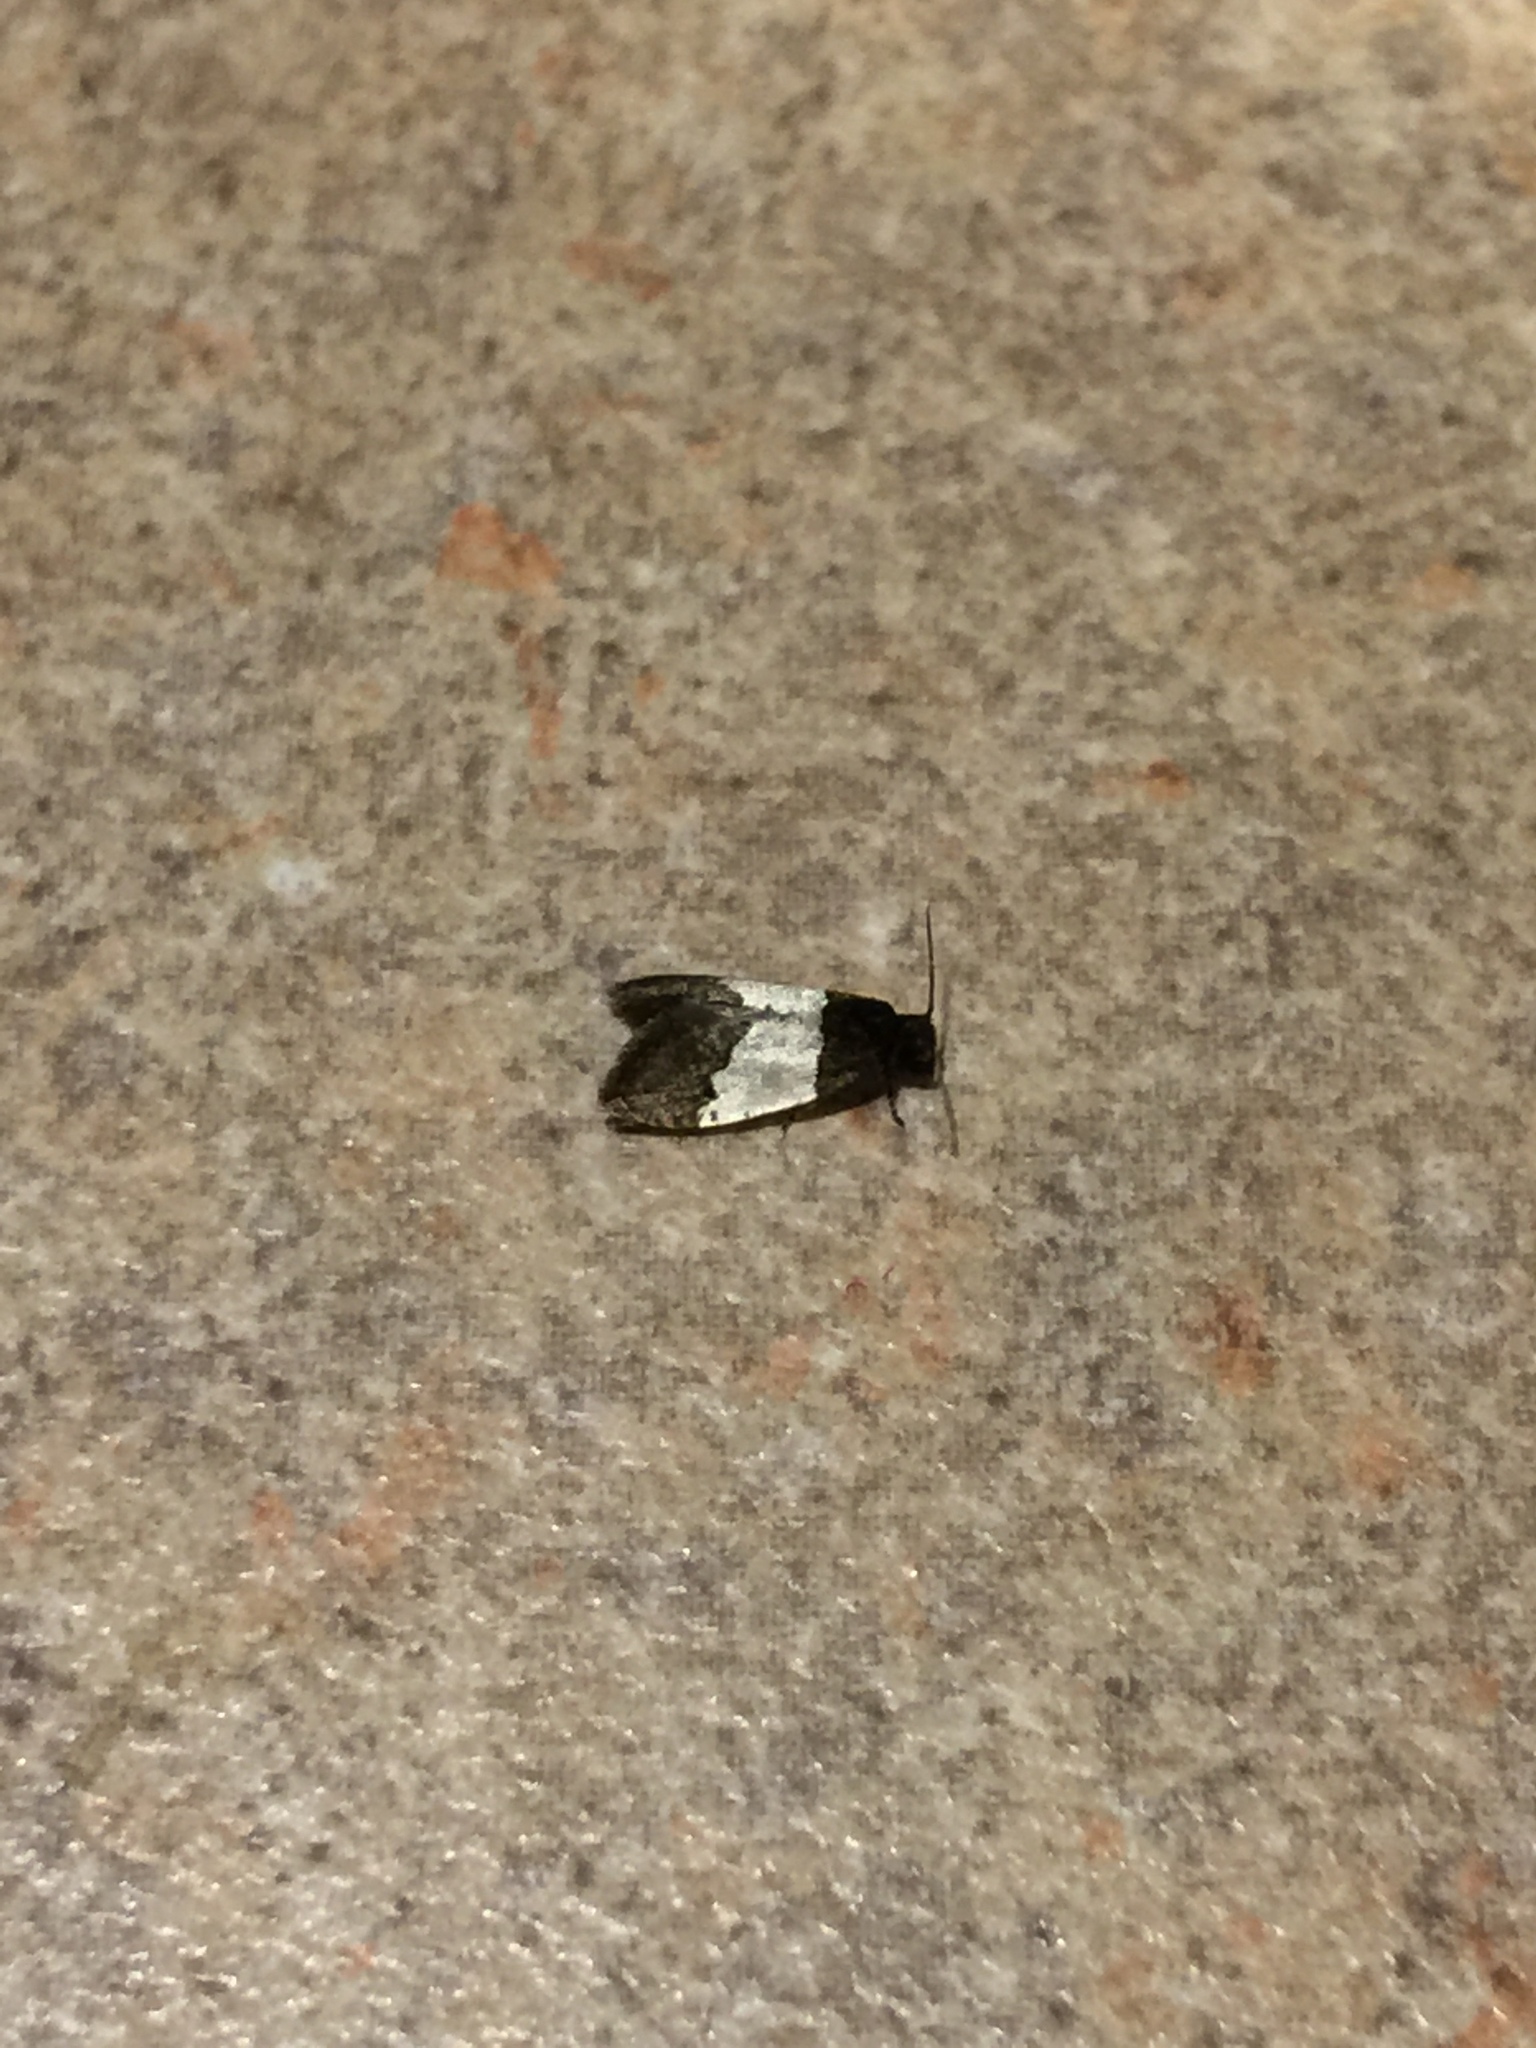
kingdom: Animalia
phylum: Arthropoda
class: Insecta
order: Lepidoptera
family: Psychidae
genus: Kearfottia
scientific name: Kearfottia albifasciella
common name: White-patched kearfottia
